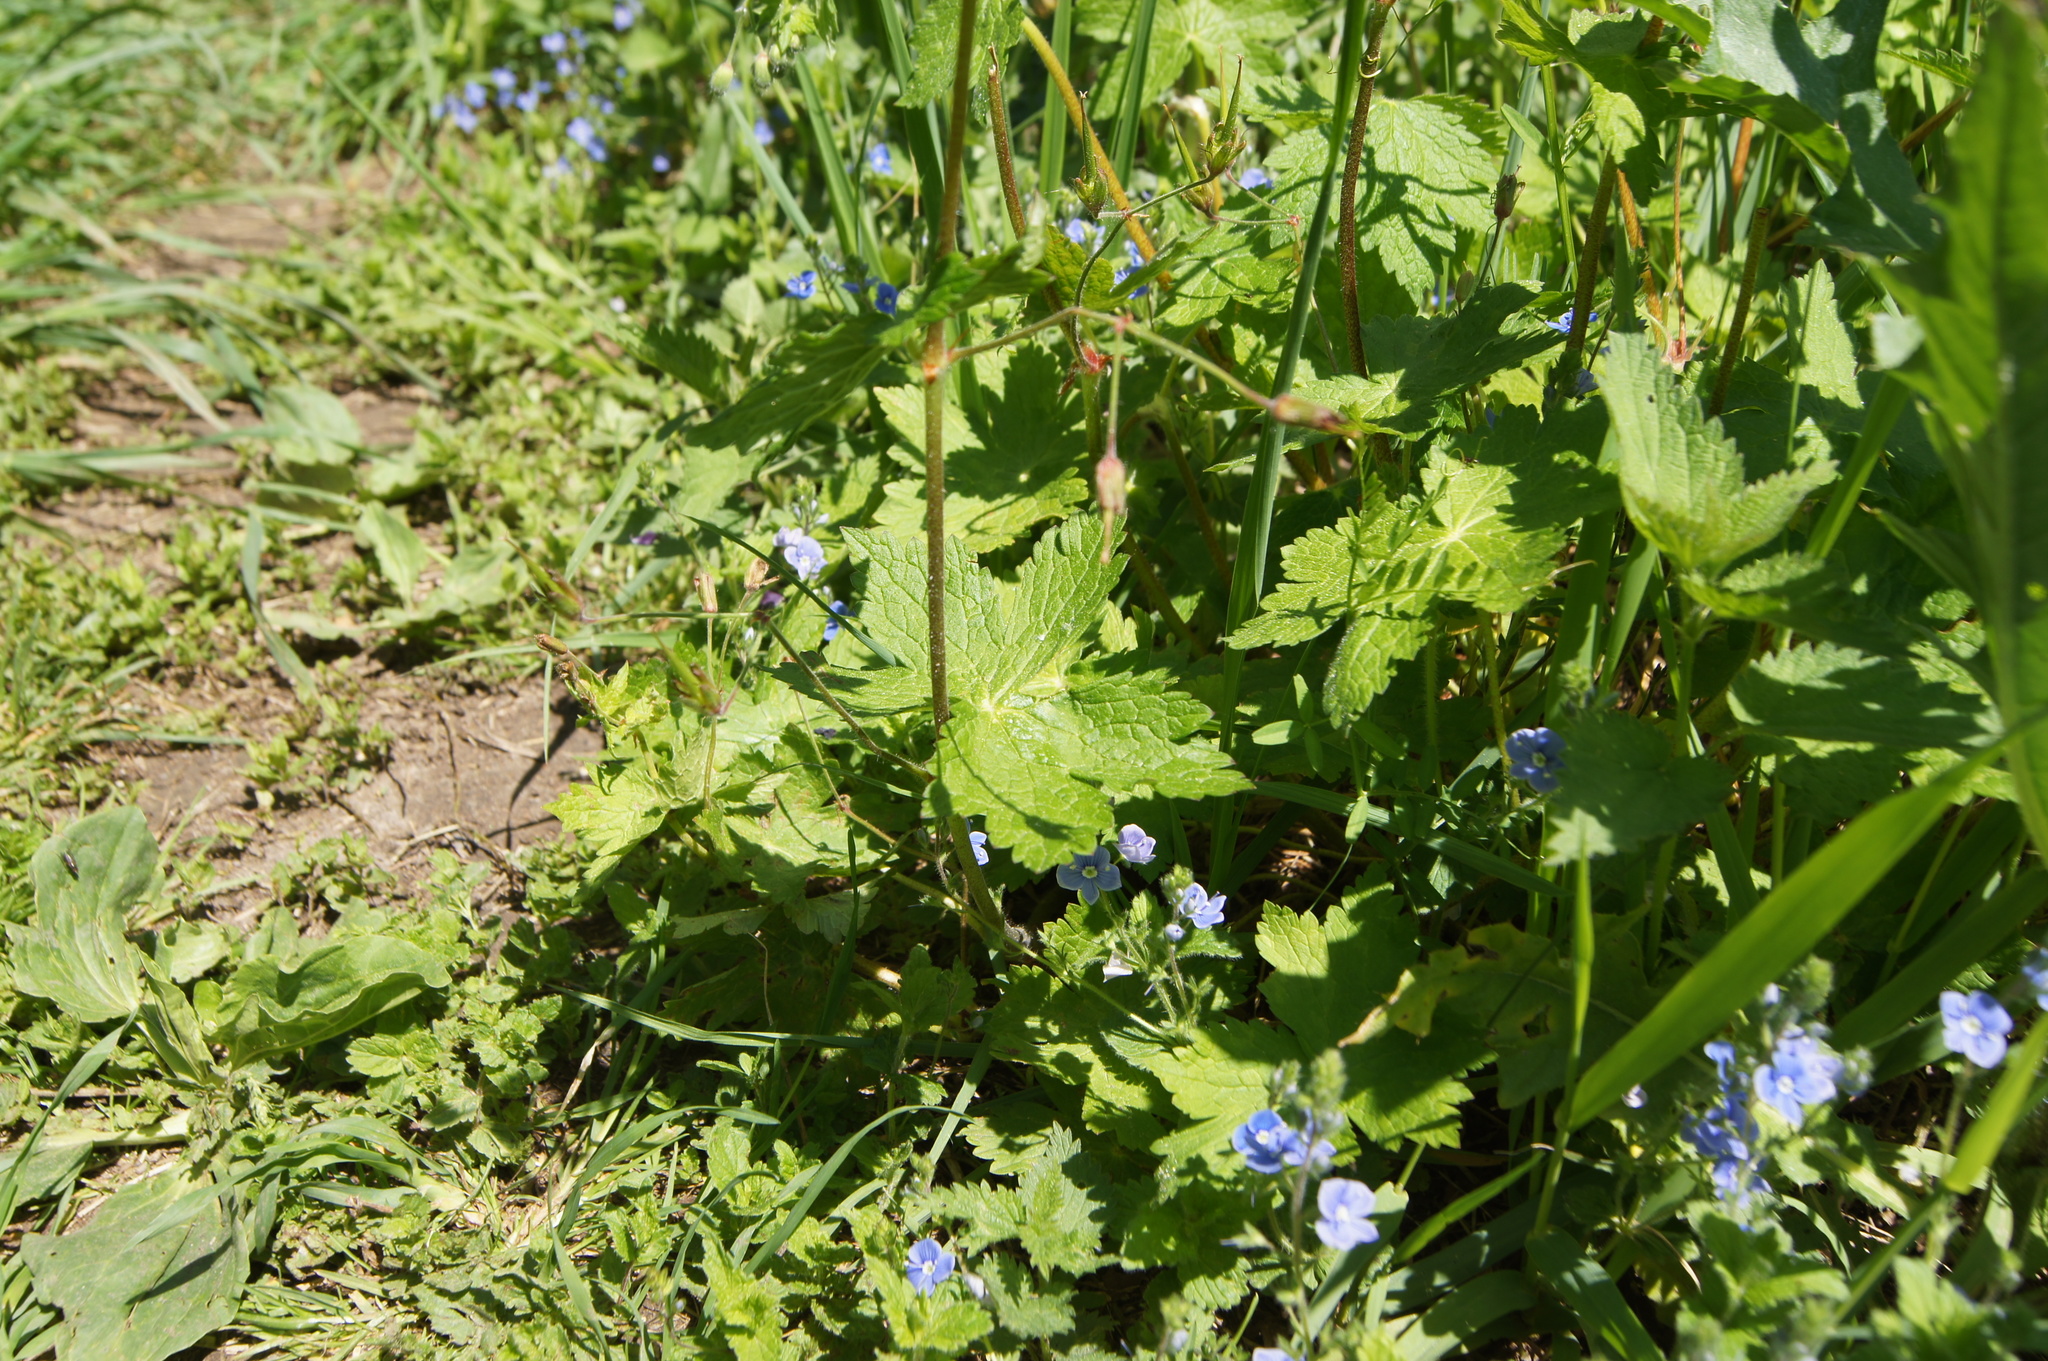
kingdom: Plantae
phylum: Tracheophyta
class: Magnoliopsida
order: Geraniales
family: Geraniaceae
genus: Geranium
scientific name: Geranium phaeum
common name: Dusky crane's-bill
